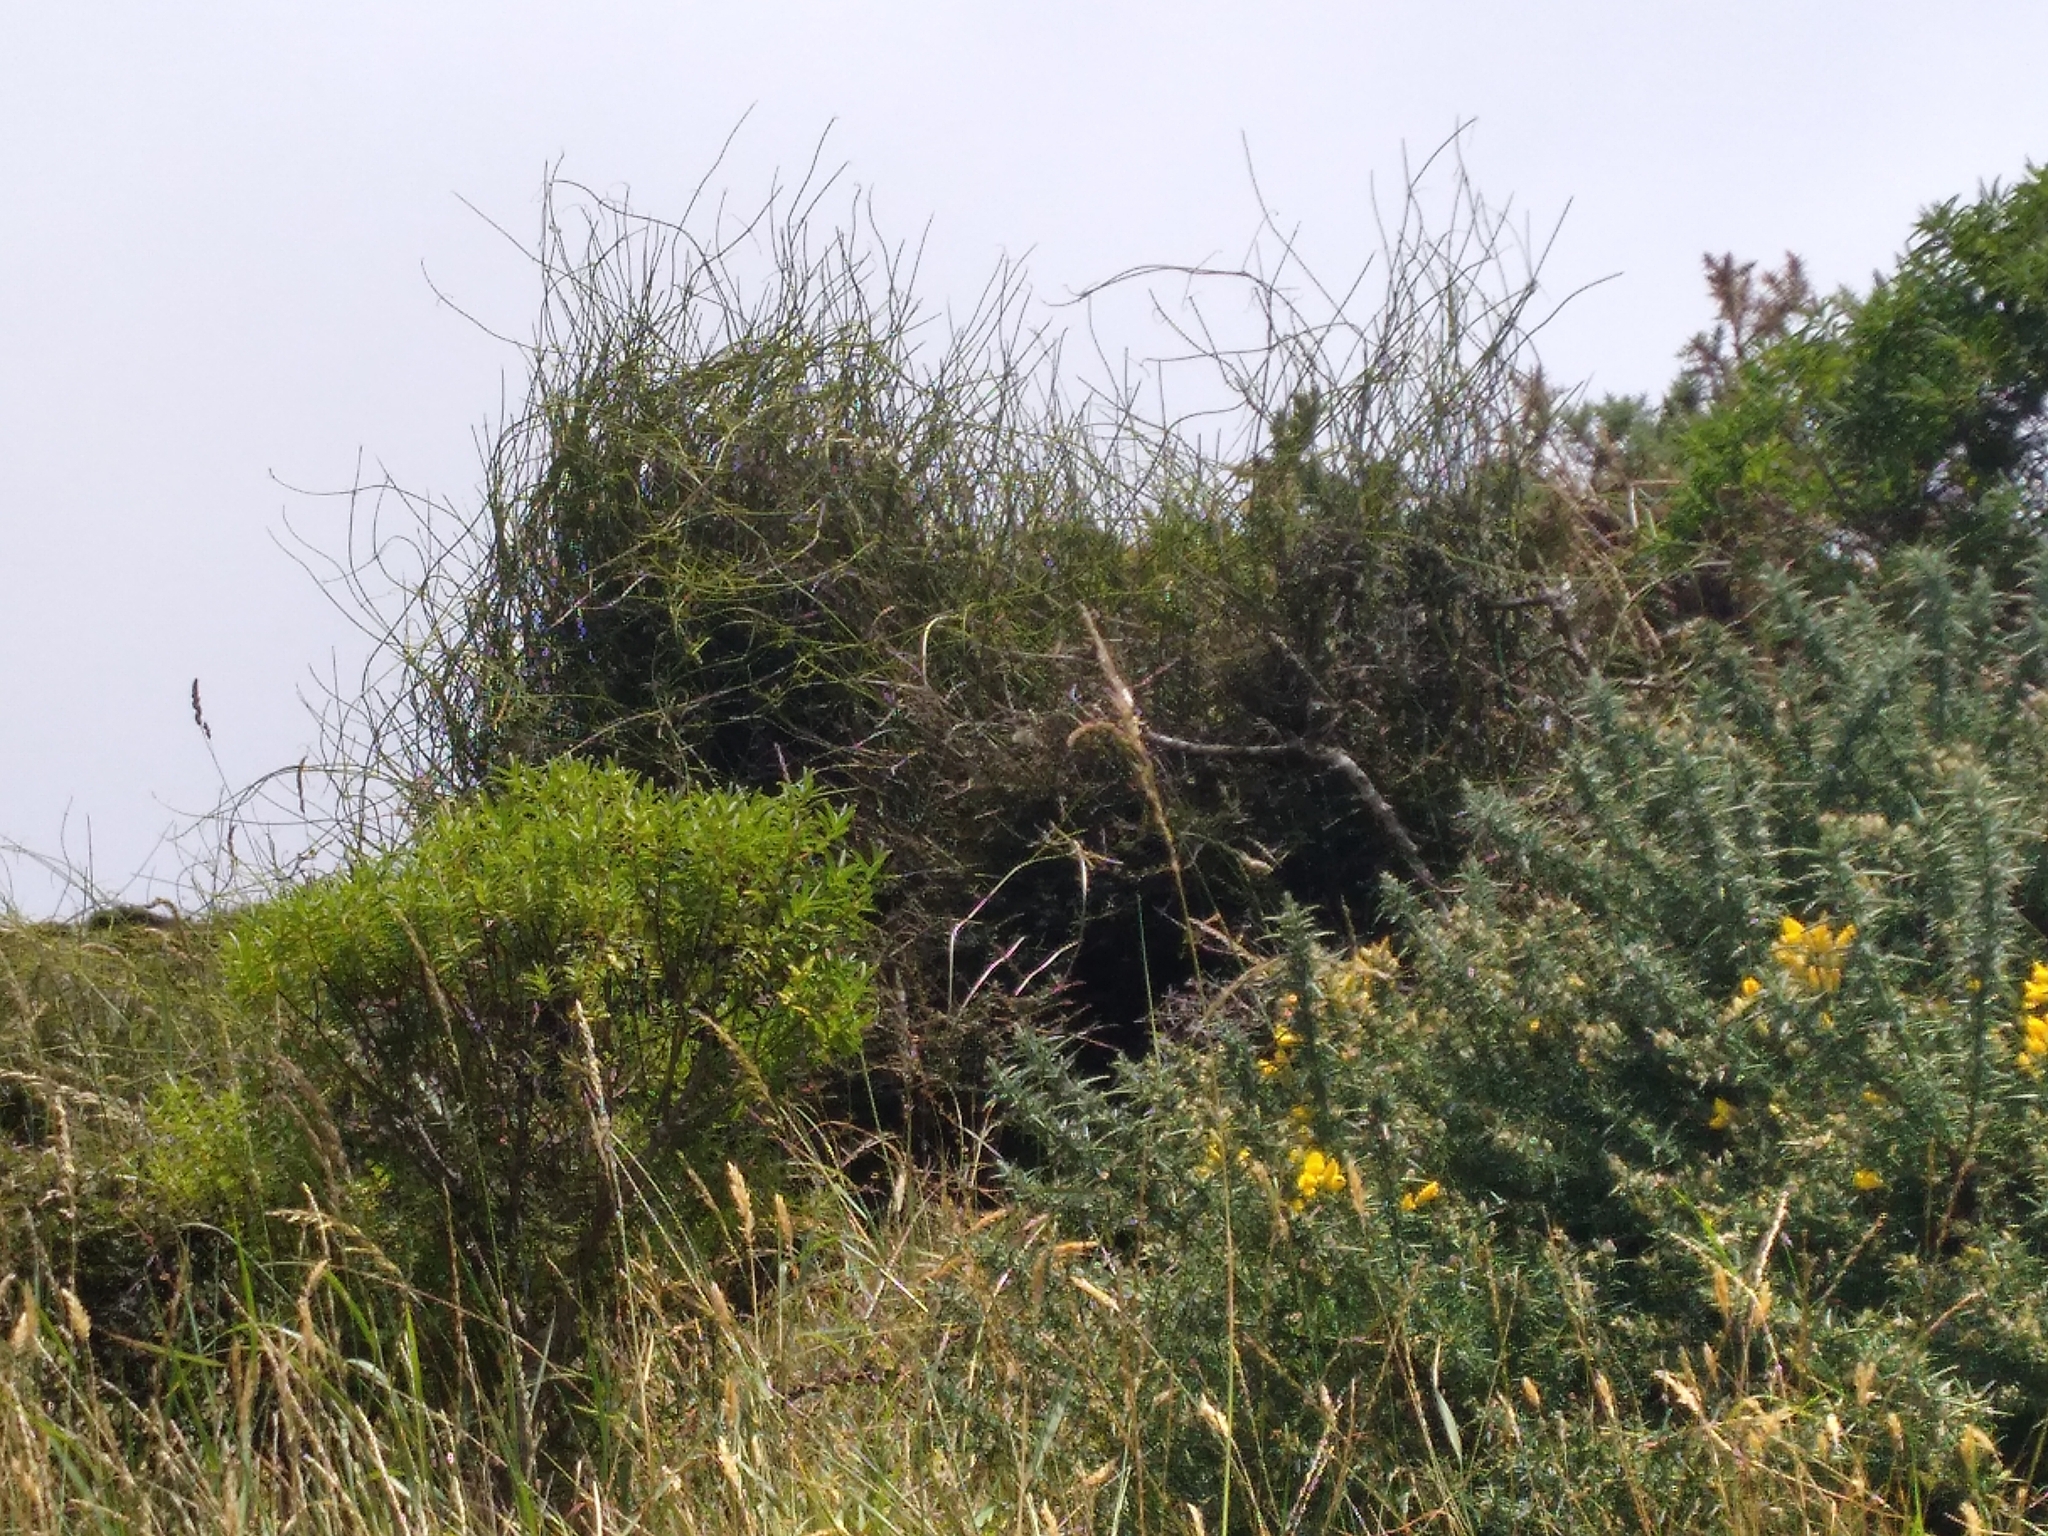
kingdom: Plantae
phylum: Tracheophyta
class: Magnoliopsida
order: Ranunculales
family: Ranunculaceae
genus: Clematis
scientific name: Clematis afoliata
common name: Rush-stem clematis
